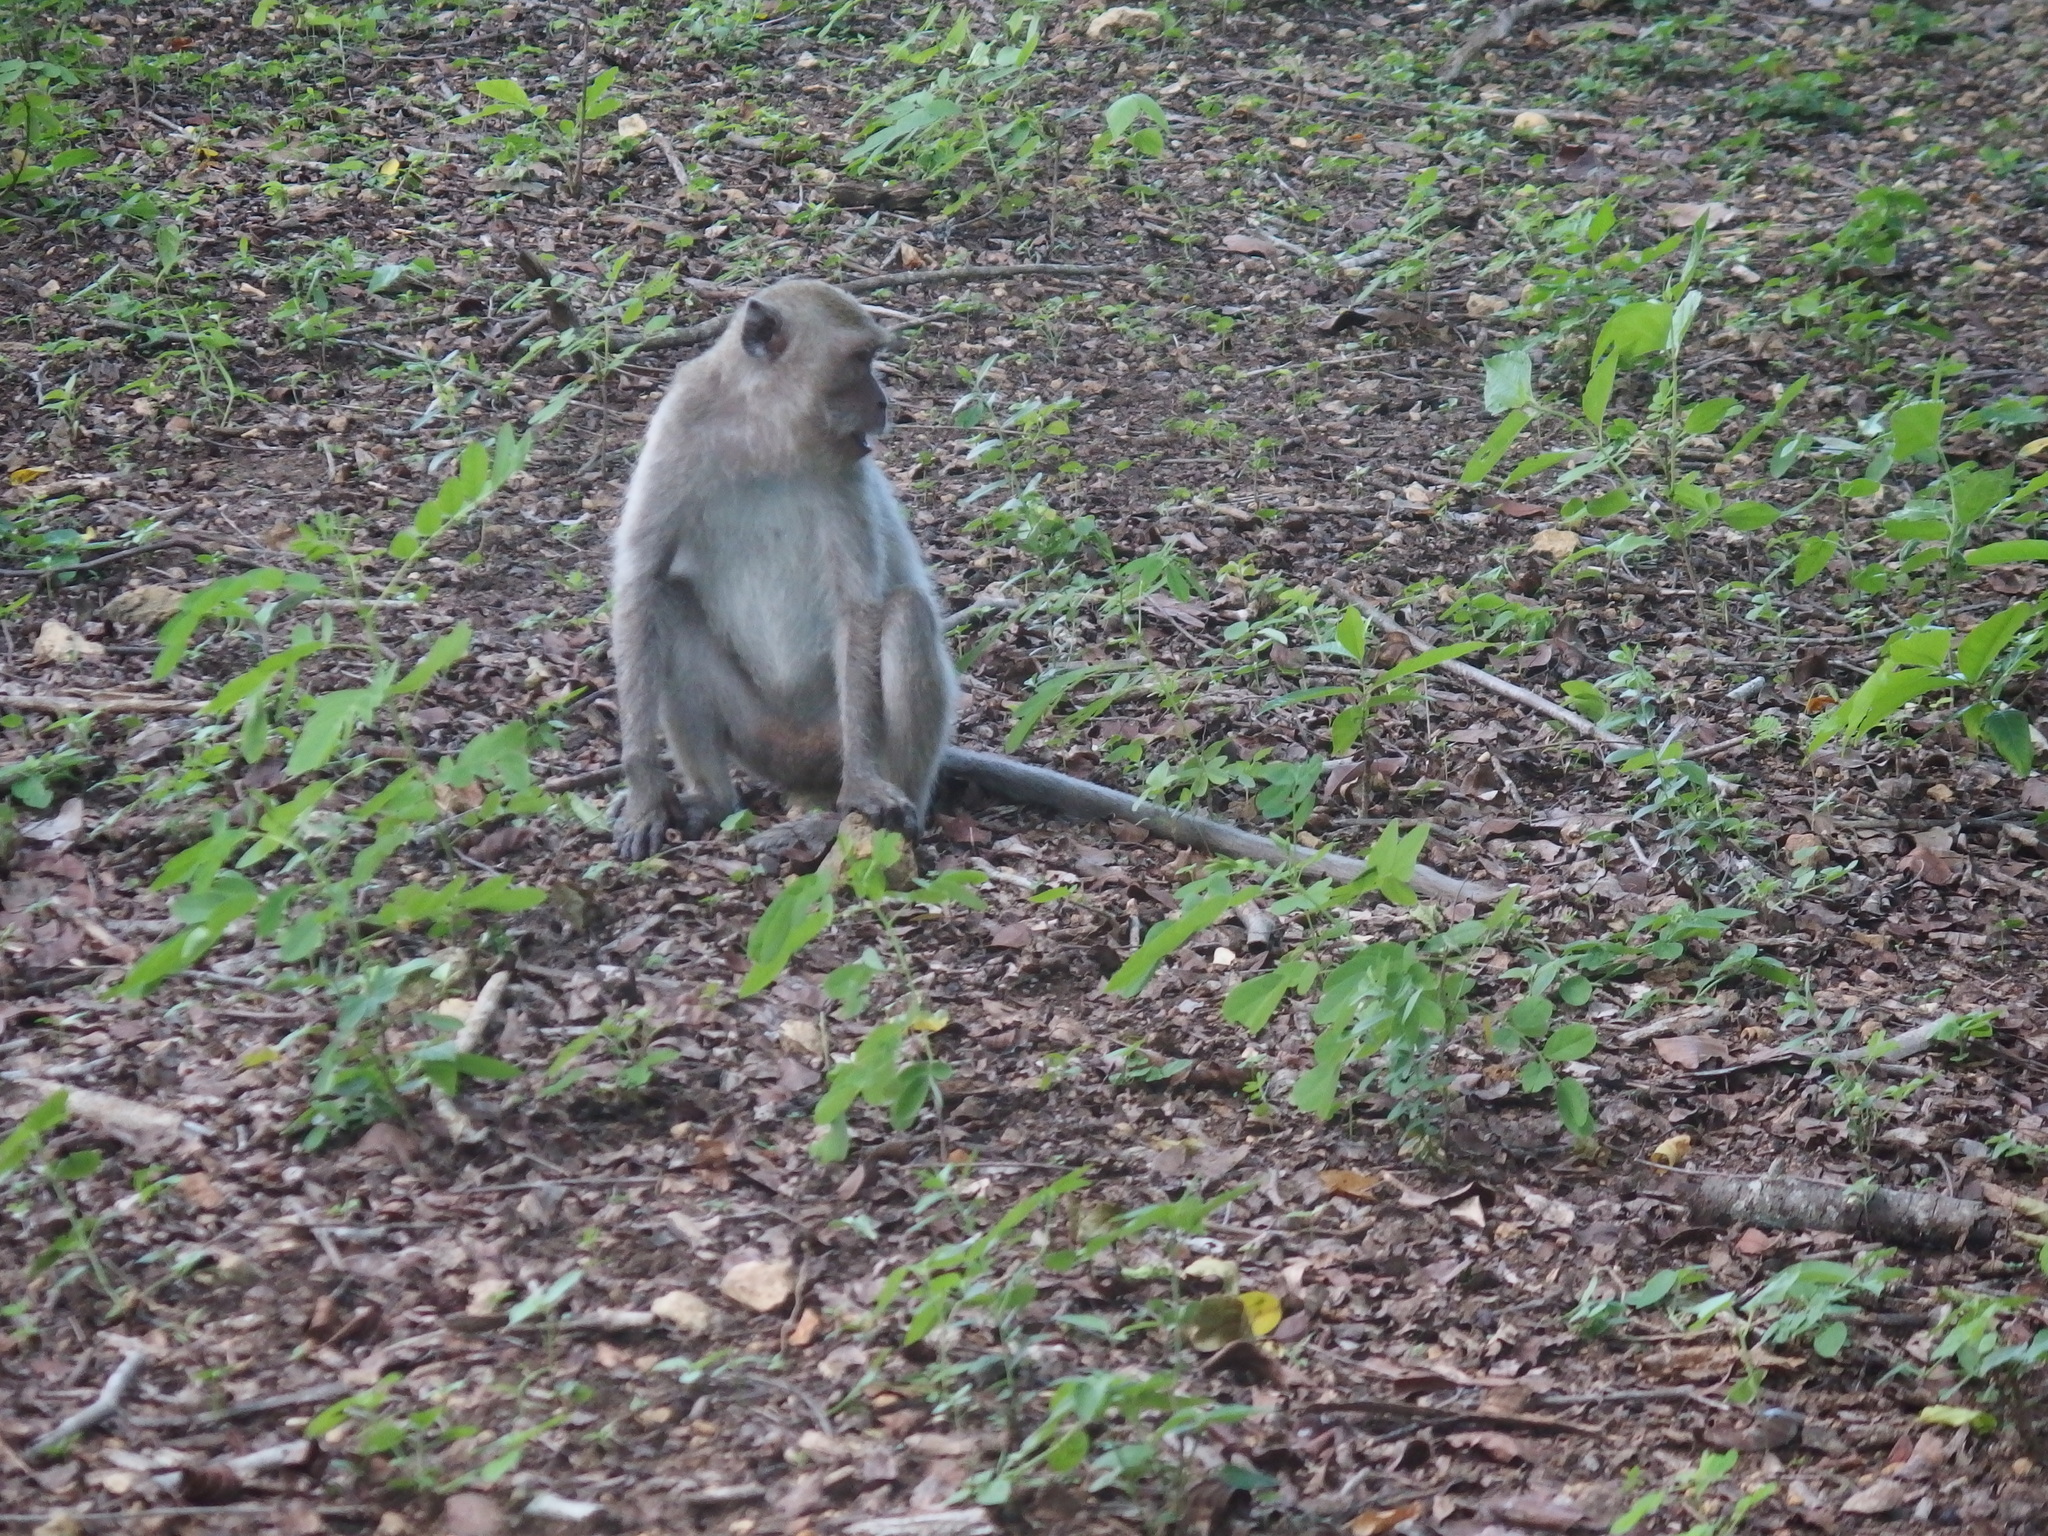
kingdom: Animalia
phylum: Chordata
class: Mammalia
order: Primates
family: Cercopithecidae
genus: Macaca
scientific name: Macaca fascicularis
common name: Crab-eating macaque
